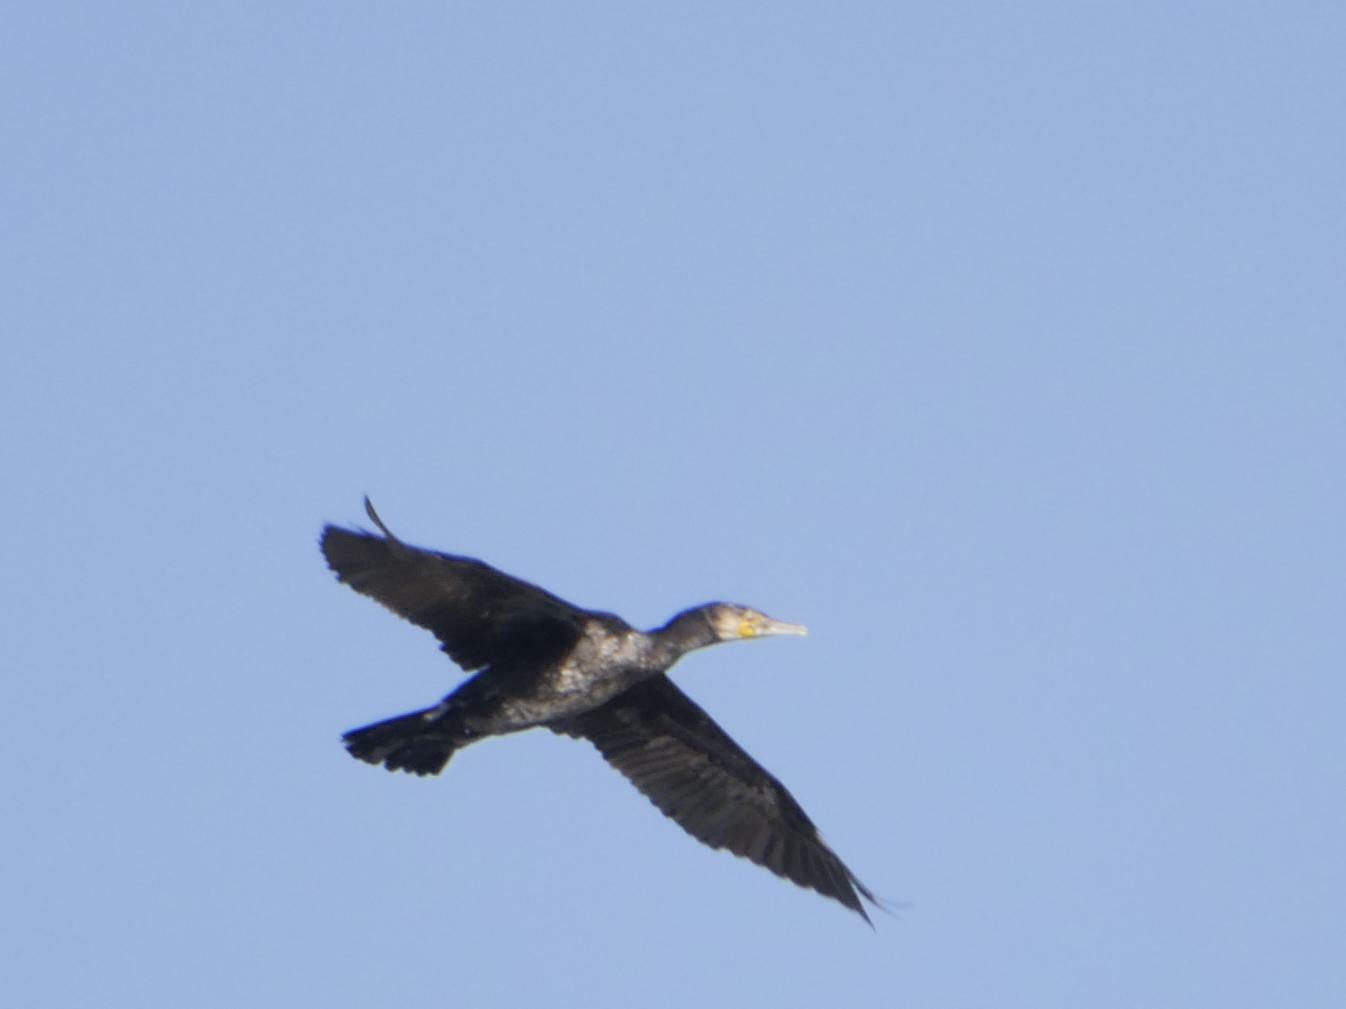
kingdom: Animalia
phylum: Chordata
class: Aves
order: Suliformes
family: Phalacrocoracidae
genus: Phalacrocorax
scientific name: Phalacrocorax carbo
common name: Great cormorant
